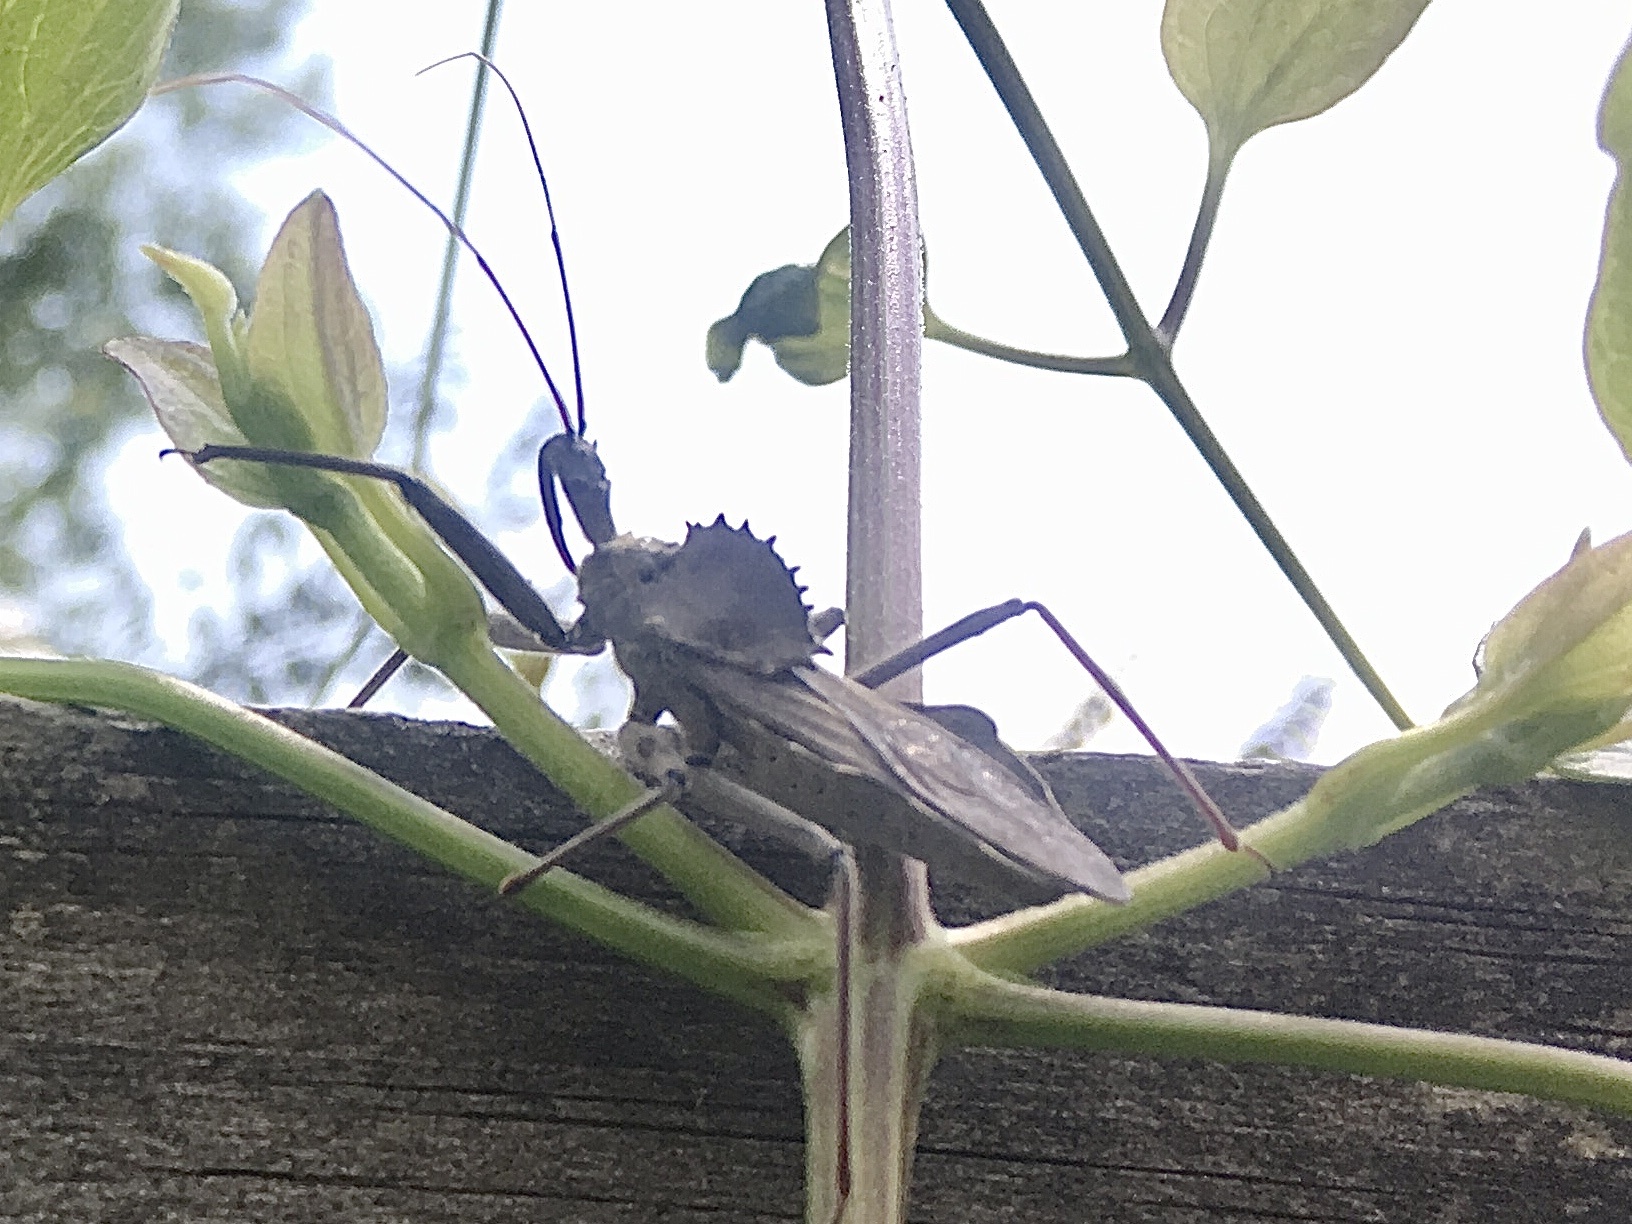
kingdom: Animalia
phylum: Arthropoda
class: Insecta
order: Hemiptera
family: Reduviidae
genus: Arilus
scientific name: Arilus cristatus
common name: North american wheel bug
